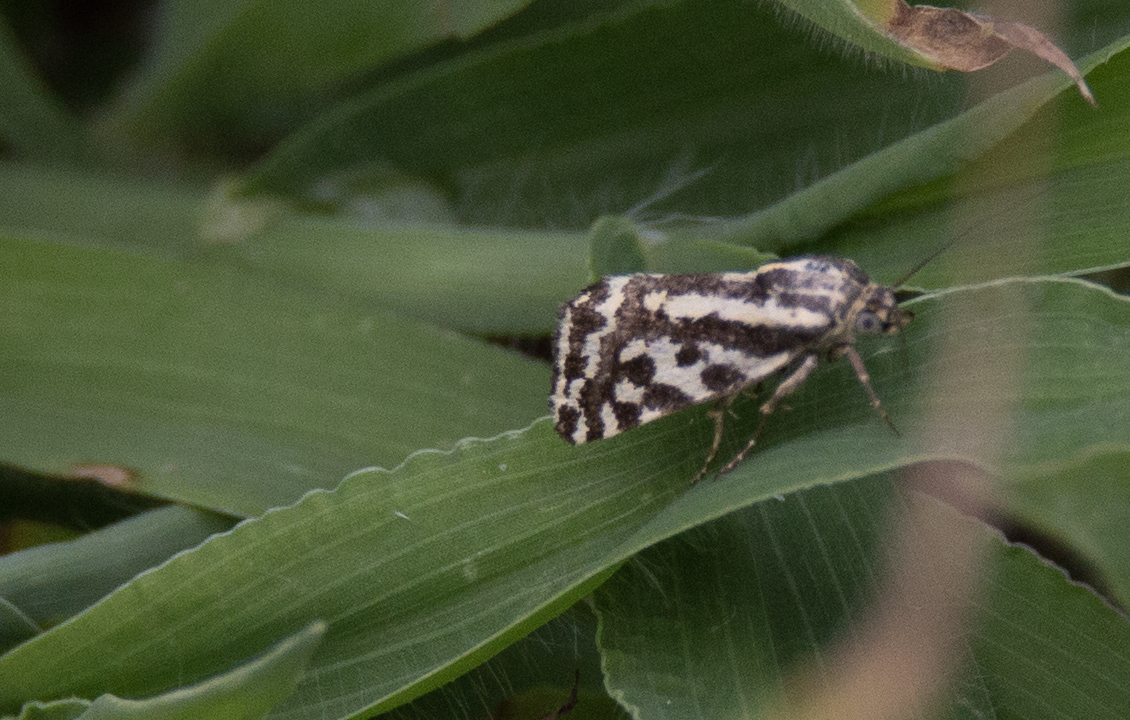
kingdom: Animalia
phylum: Arthropoda
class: Insecta
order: Lepidoptera
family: Noctuidae
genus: Acontia
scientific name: Acontia trabealis
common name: Spotted sulphur
